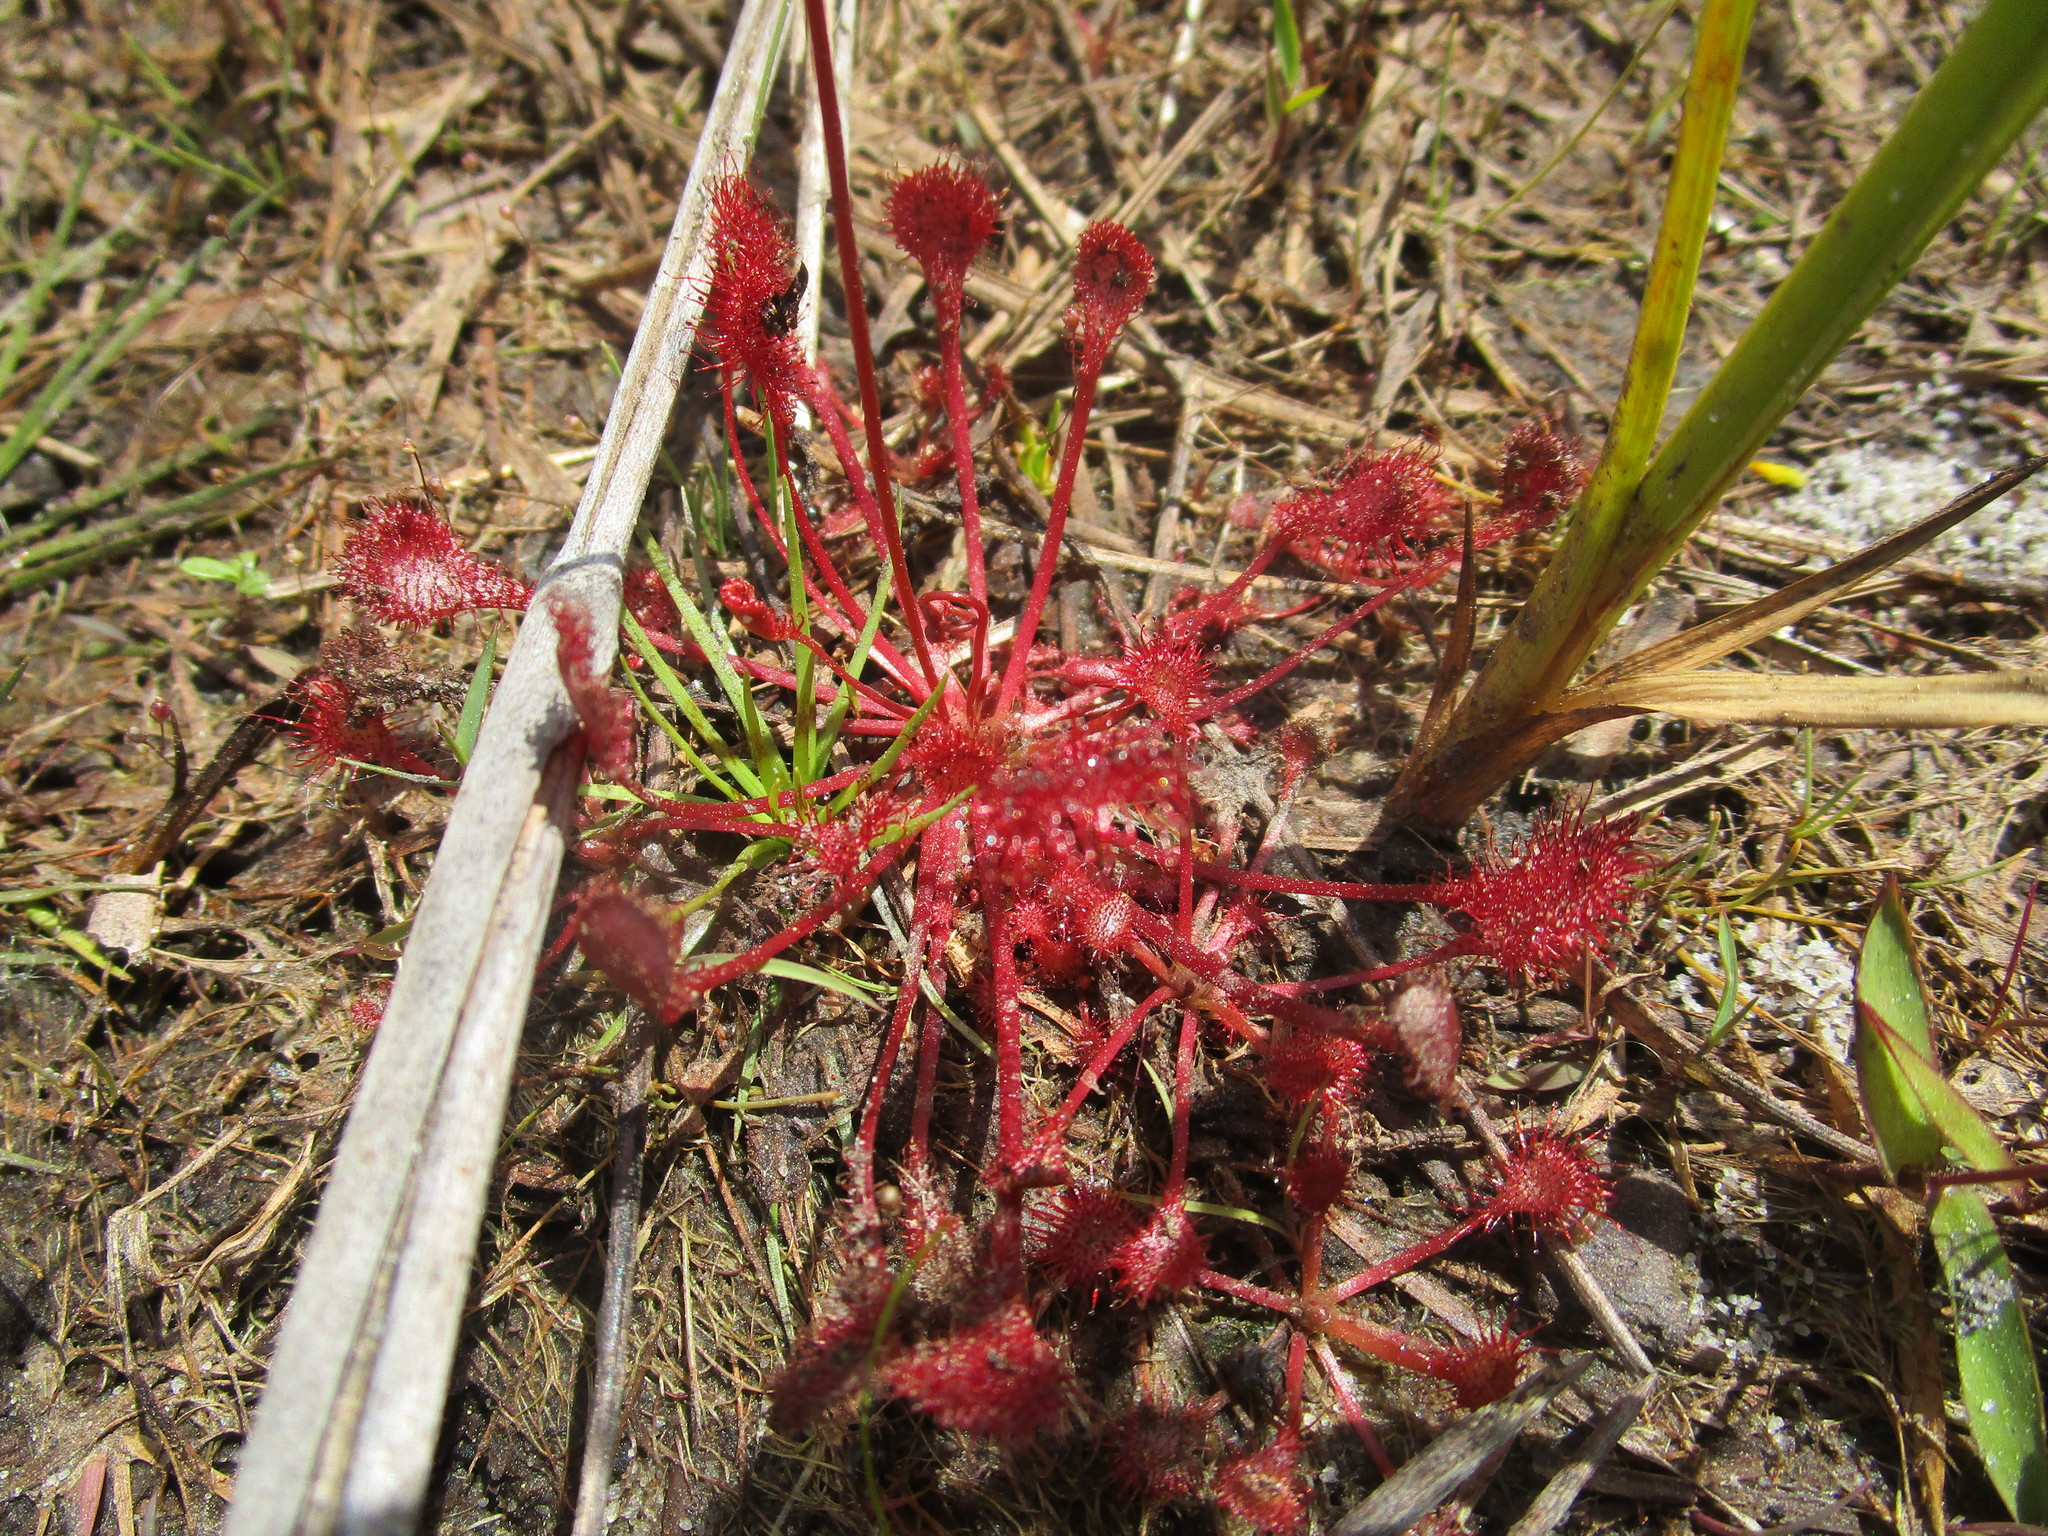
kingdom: Plantae
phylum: Tracheophyta
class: Magnoliopsida
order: Caryophyllales
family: Droseraceae
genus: Drosera
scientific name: Drosera capillaris
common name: Pink sundew
